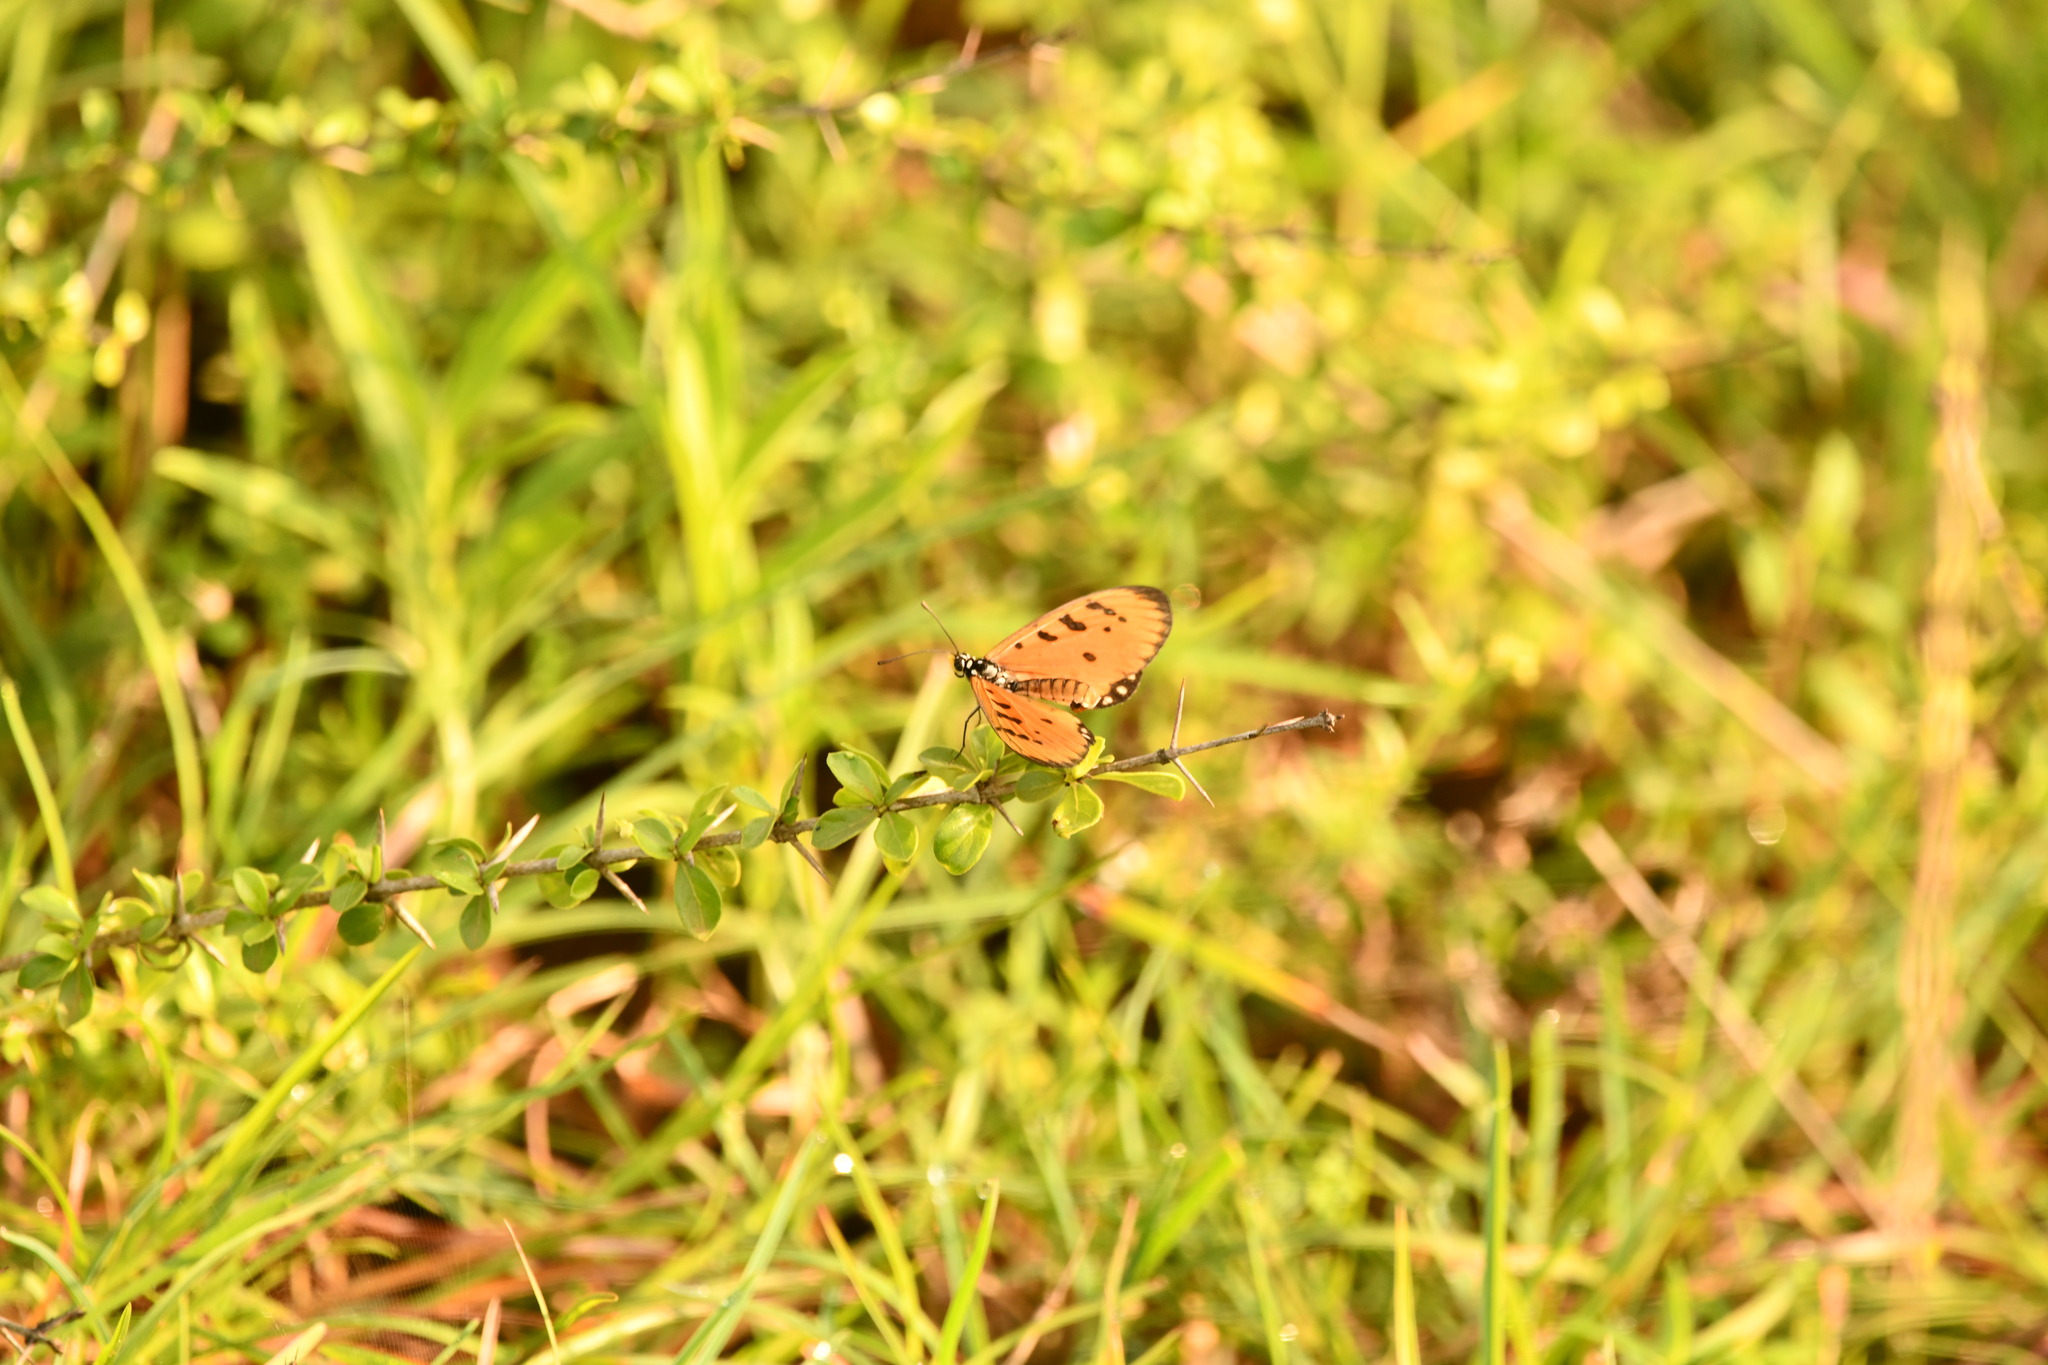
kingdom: Animalia
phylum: Arthropoda
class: Insecta
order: Lepidoptera
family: Nymphalidae
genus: Acraea
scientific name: Acraea terpsicore
